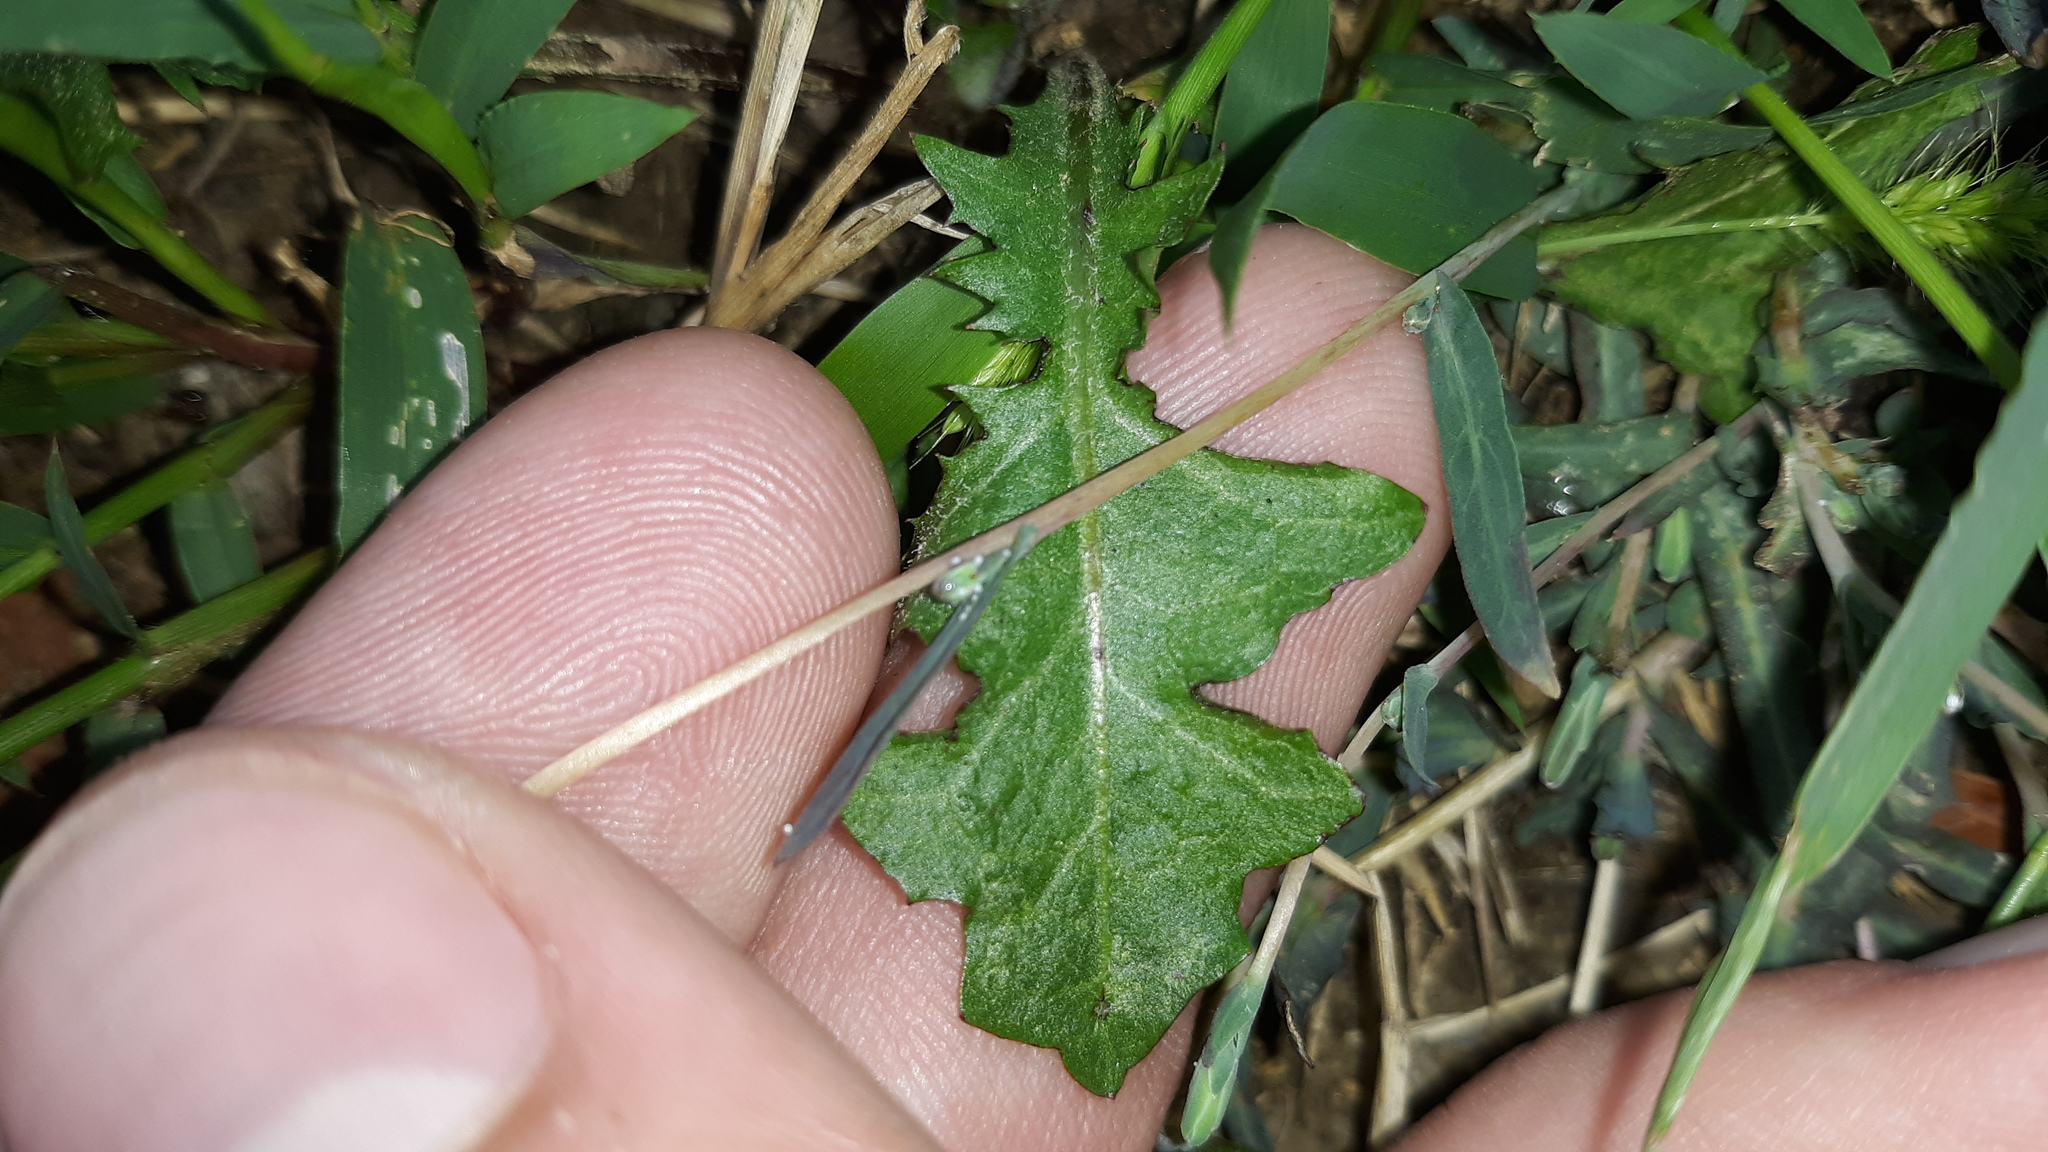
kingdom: Plantae
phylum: Tracheophyta
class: Magnoliopsida
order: Asterales
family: Asteraceae
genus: Lactuca
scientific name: Lactuca saligna
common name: Wild lettuce
